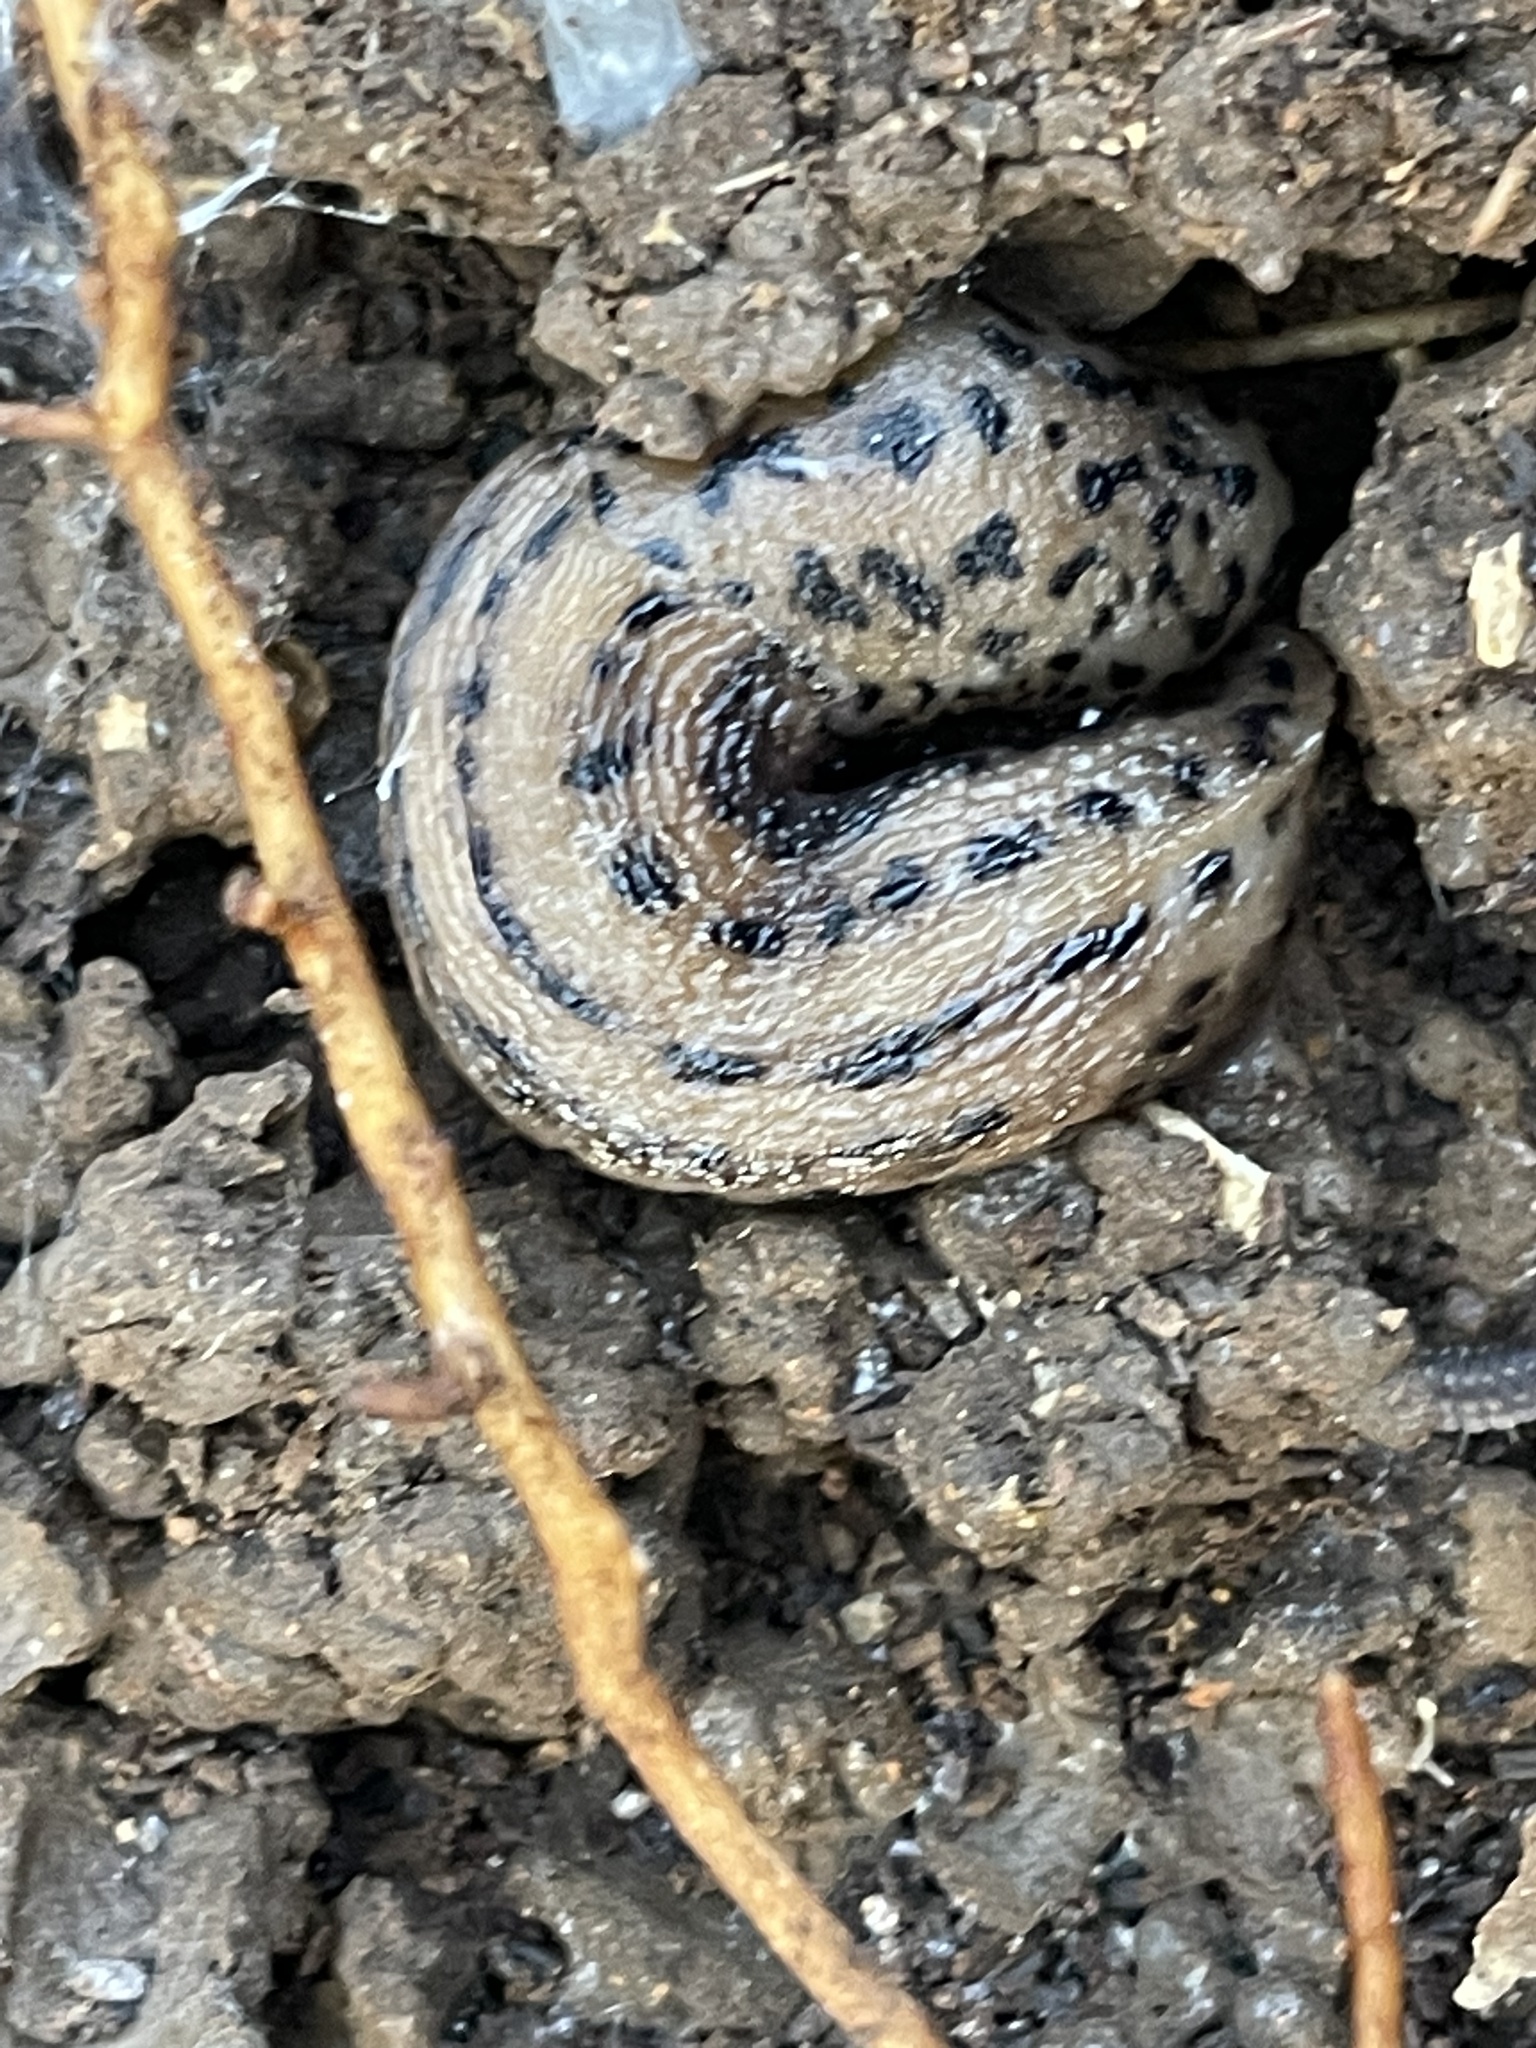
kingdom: Animalia
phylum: Mollusca
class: Gastropoda
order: Stylommatophora
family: Limacidae
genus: Limax
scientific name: Limax maximus
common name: Great grey slug
